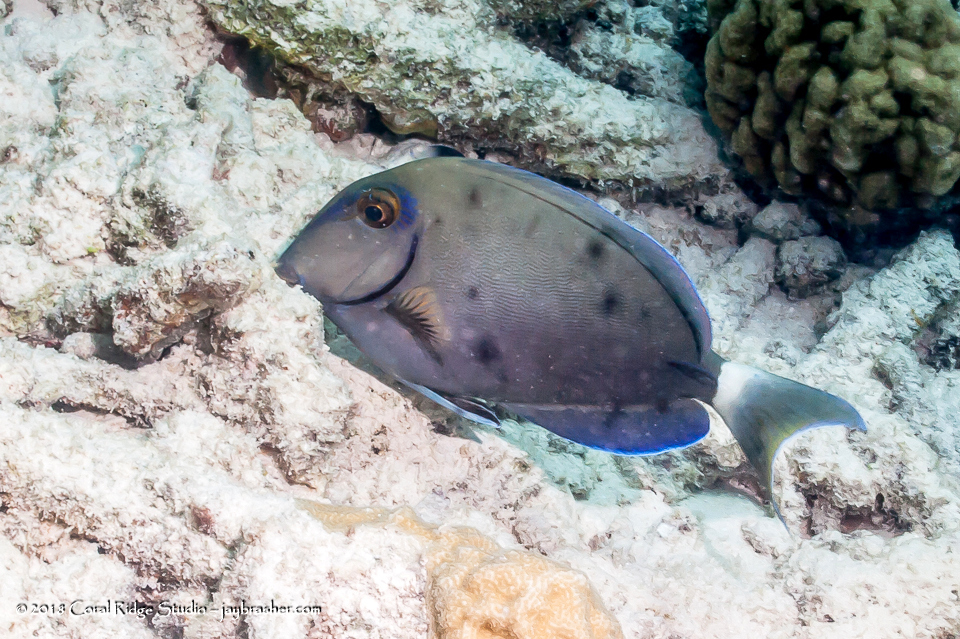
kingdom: Animalia
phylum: Chordata
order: Perciformes
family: Acanthuridae
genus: Acanthurus
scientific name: Acanthurus bahianus
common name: Ocean surgeon
